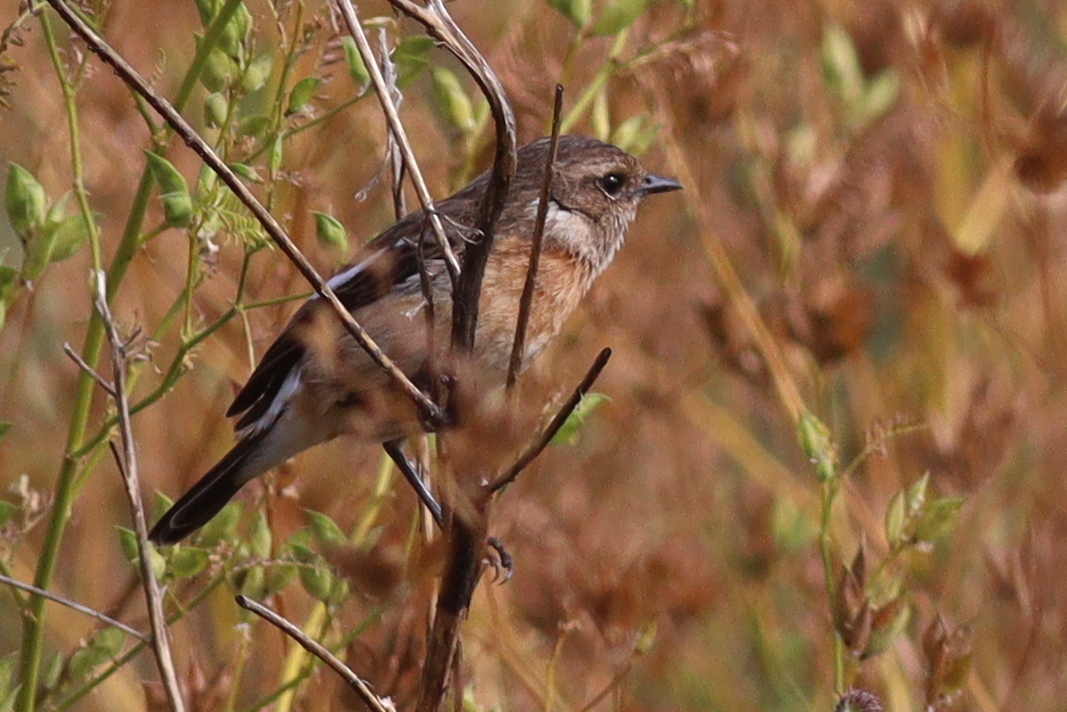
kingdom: Animalia
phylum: Chordata
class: Aves
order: Passeriformes
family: Muscicapidae
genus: Saxicola
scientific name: Saxicola torquatus
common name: African stonechat
